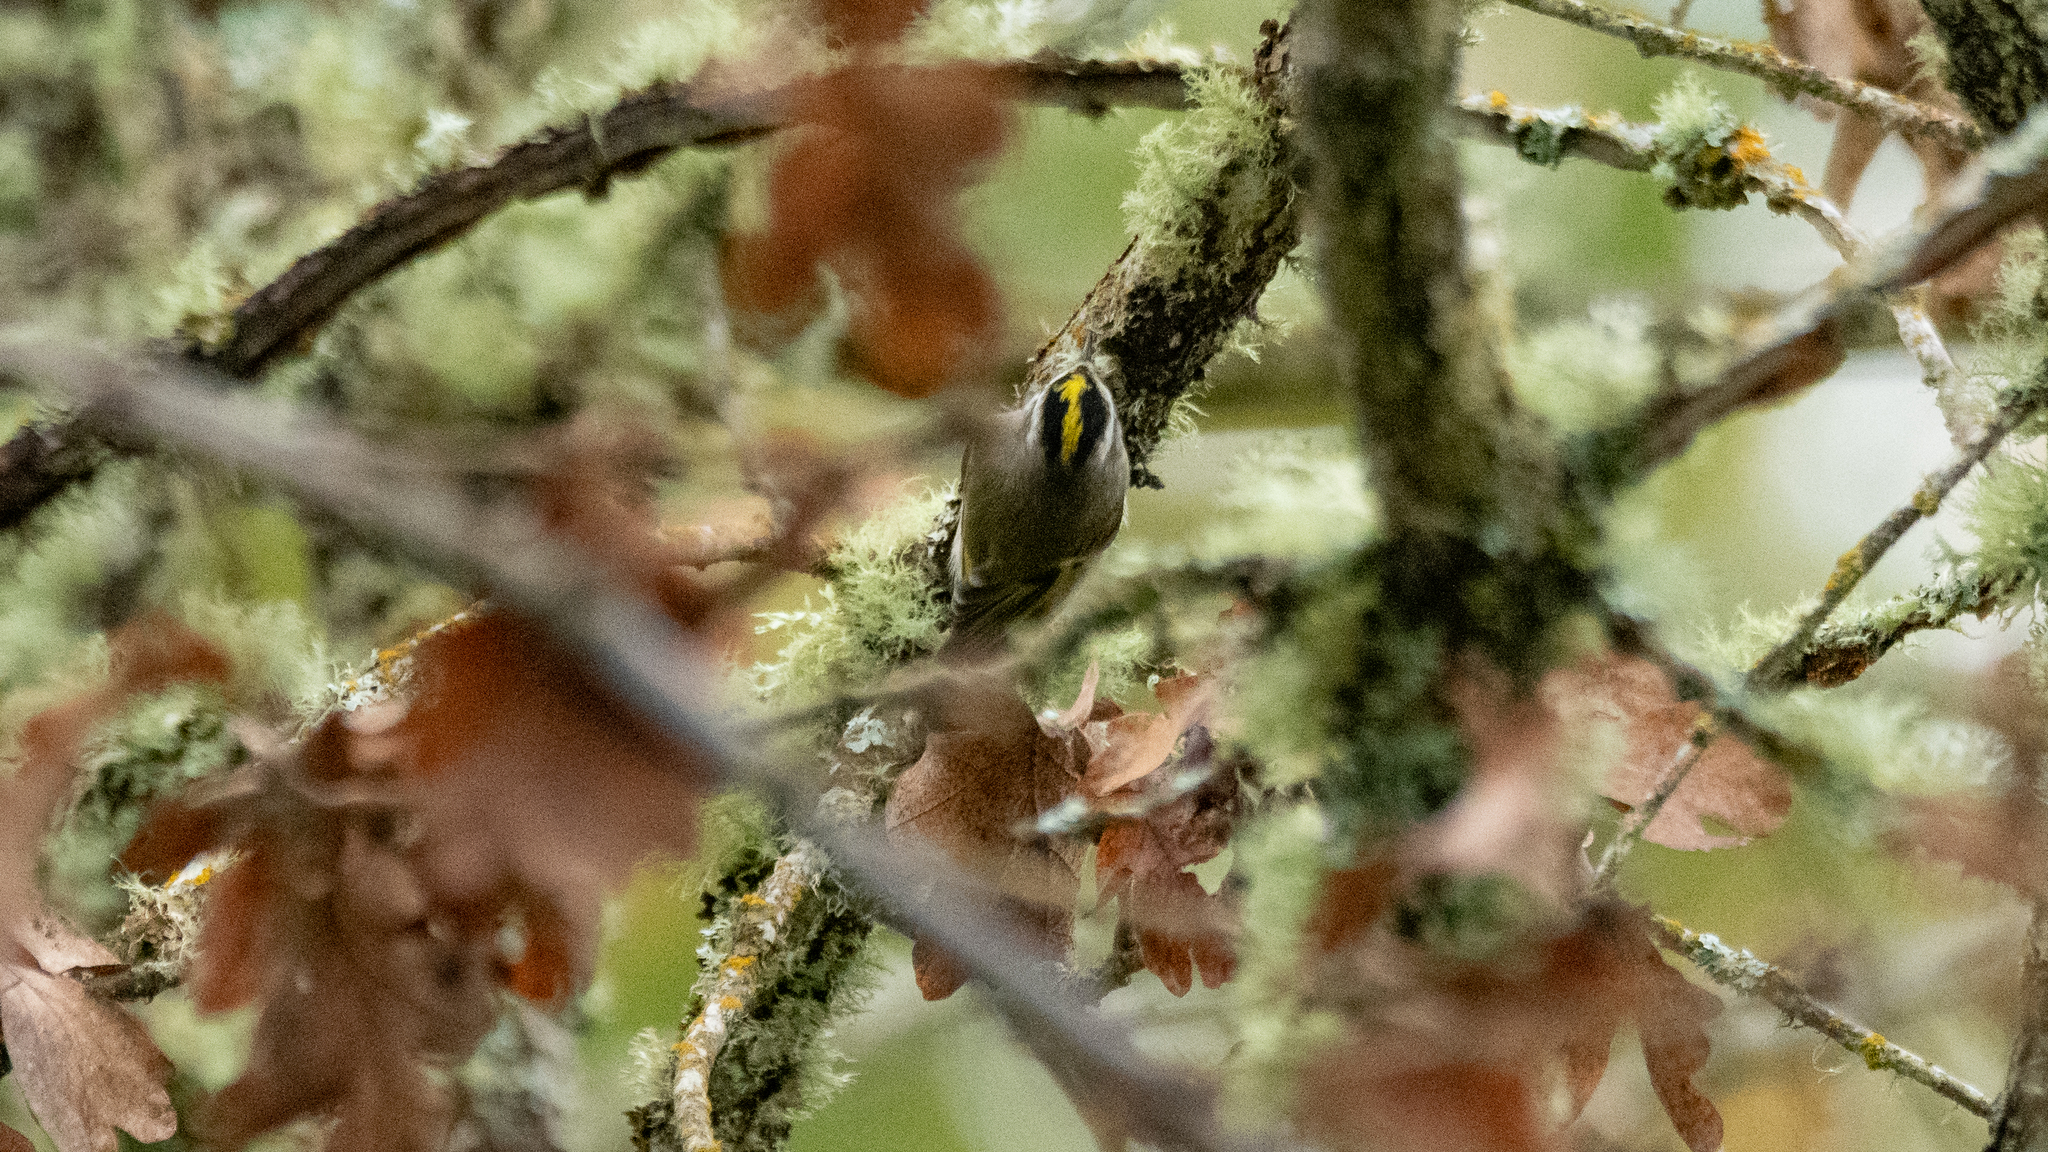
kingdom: Animalia
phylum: Chordata
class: Aves
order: Passeriformes
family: Regulidae
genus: Regulus
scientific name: Regulus satrapa
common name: Golden-crowned kinglet
